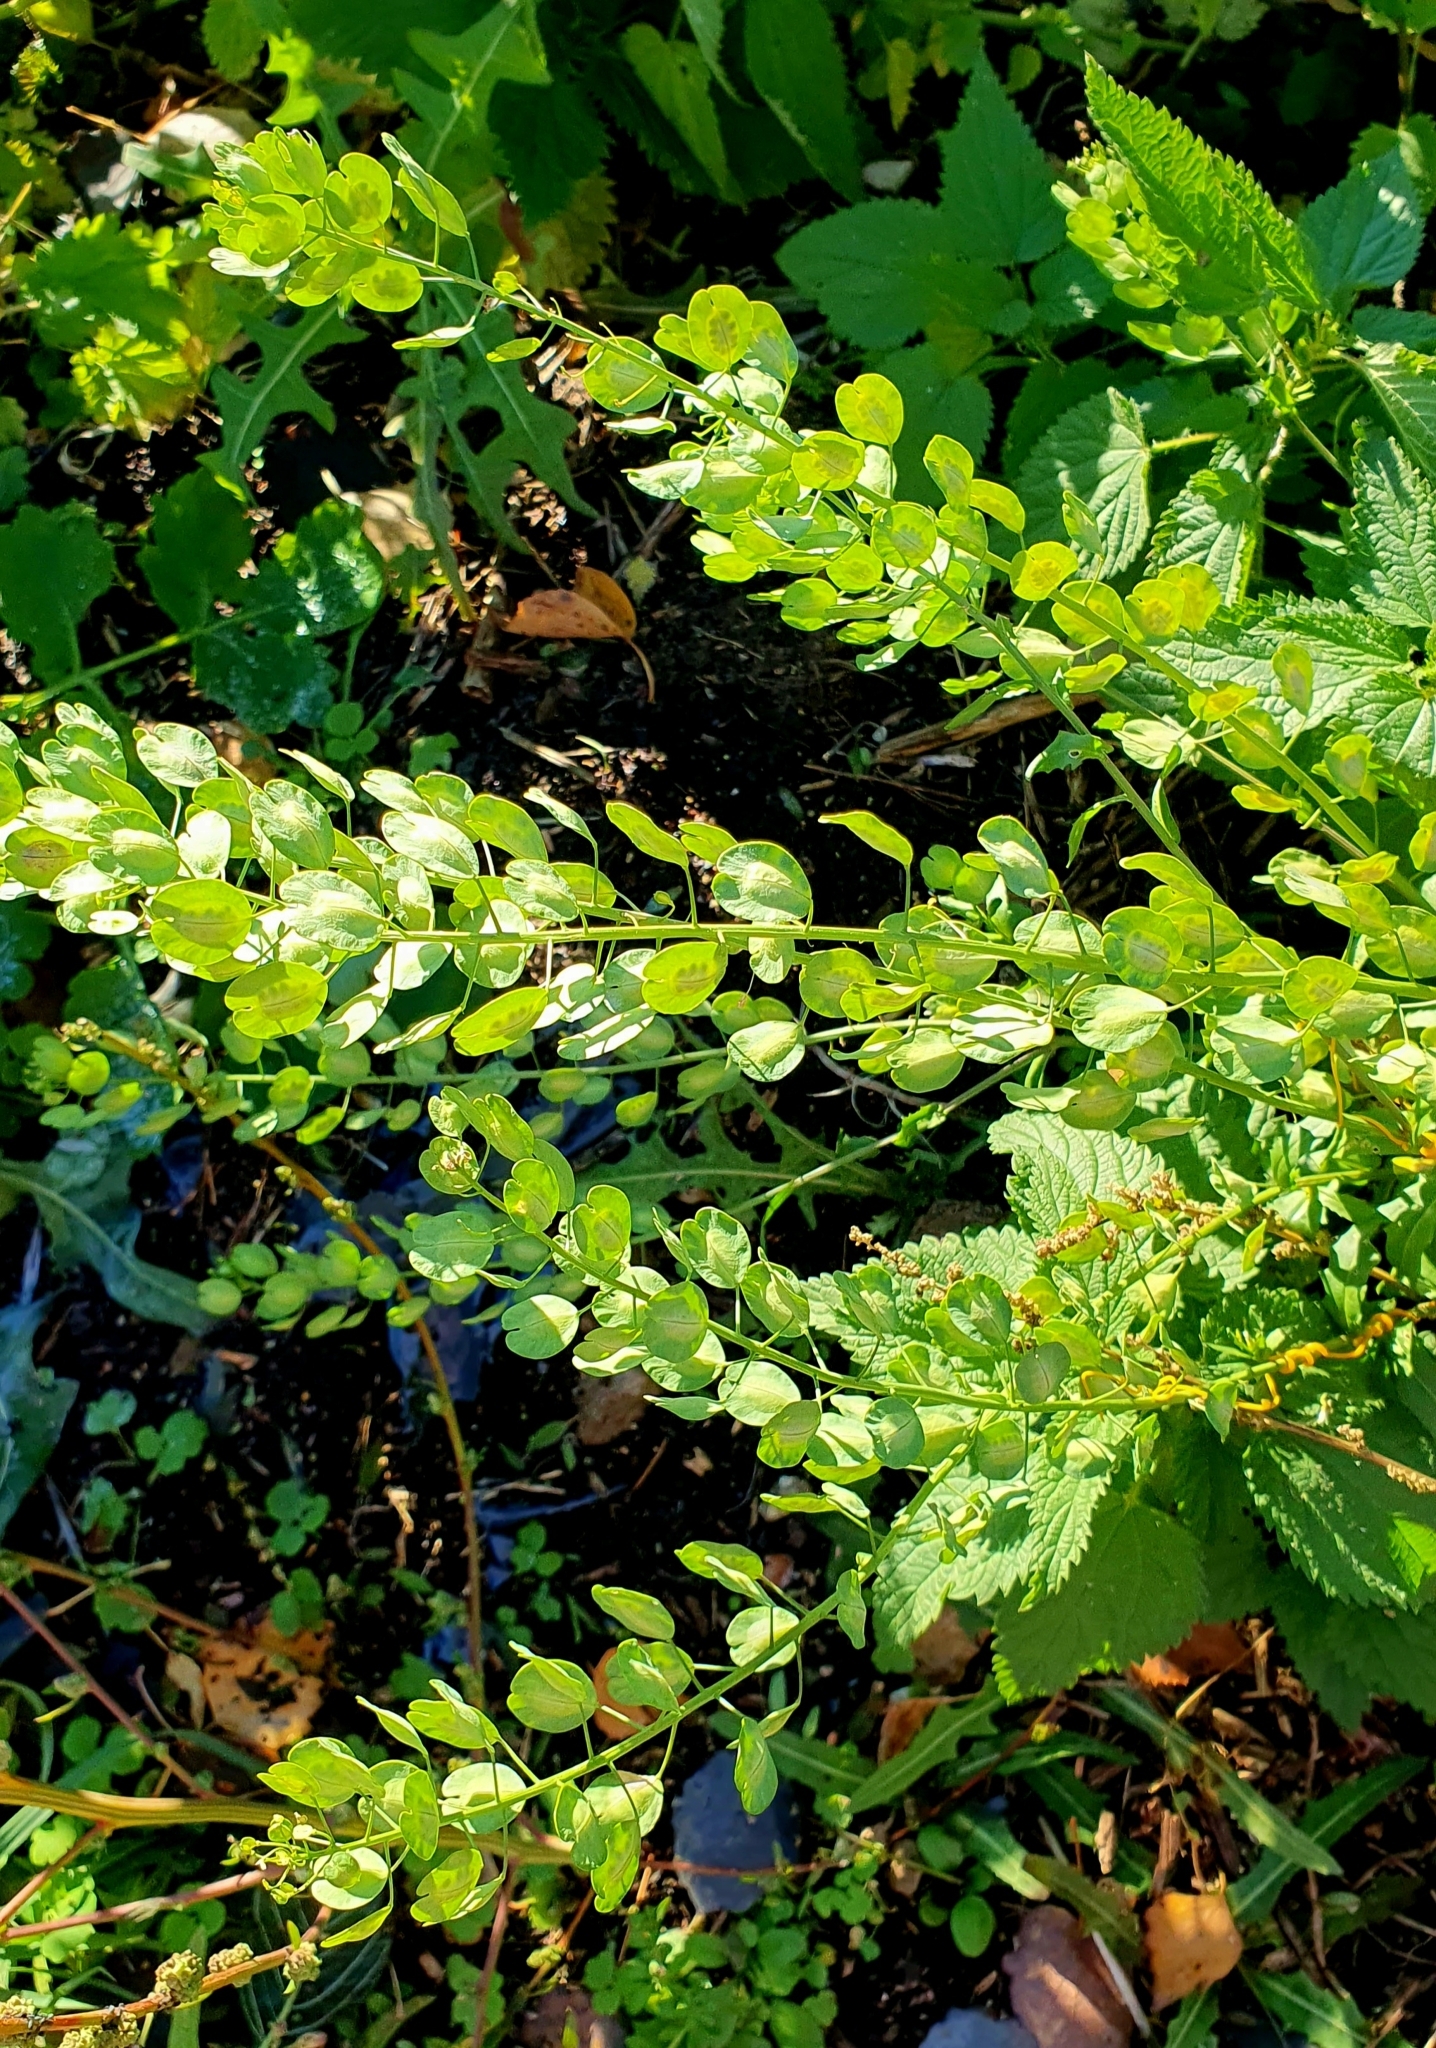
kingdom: Plantae
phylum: Tracheophyta
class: Magnoliopsida
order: Brassicales
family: Brassicaceae
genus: Thlaspi
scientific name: Thlaspi arvense
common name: Field pennycress
